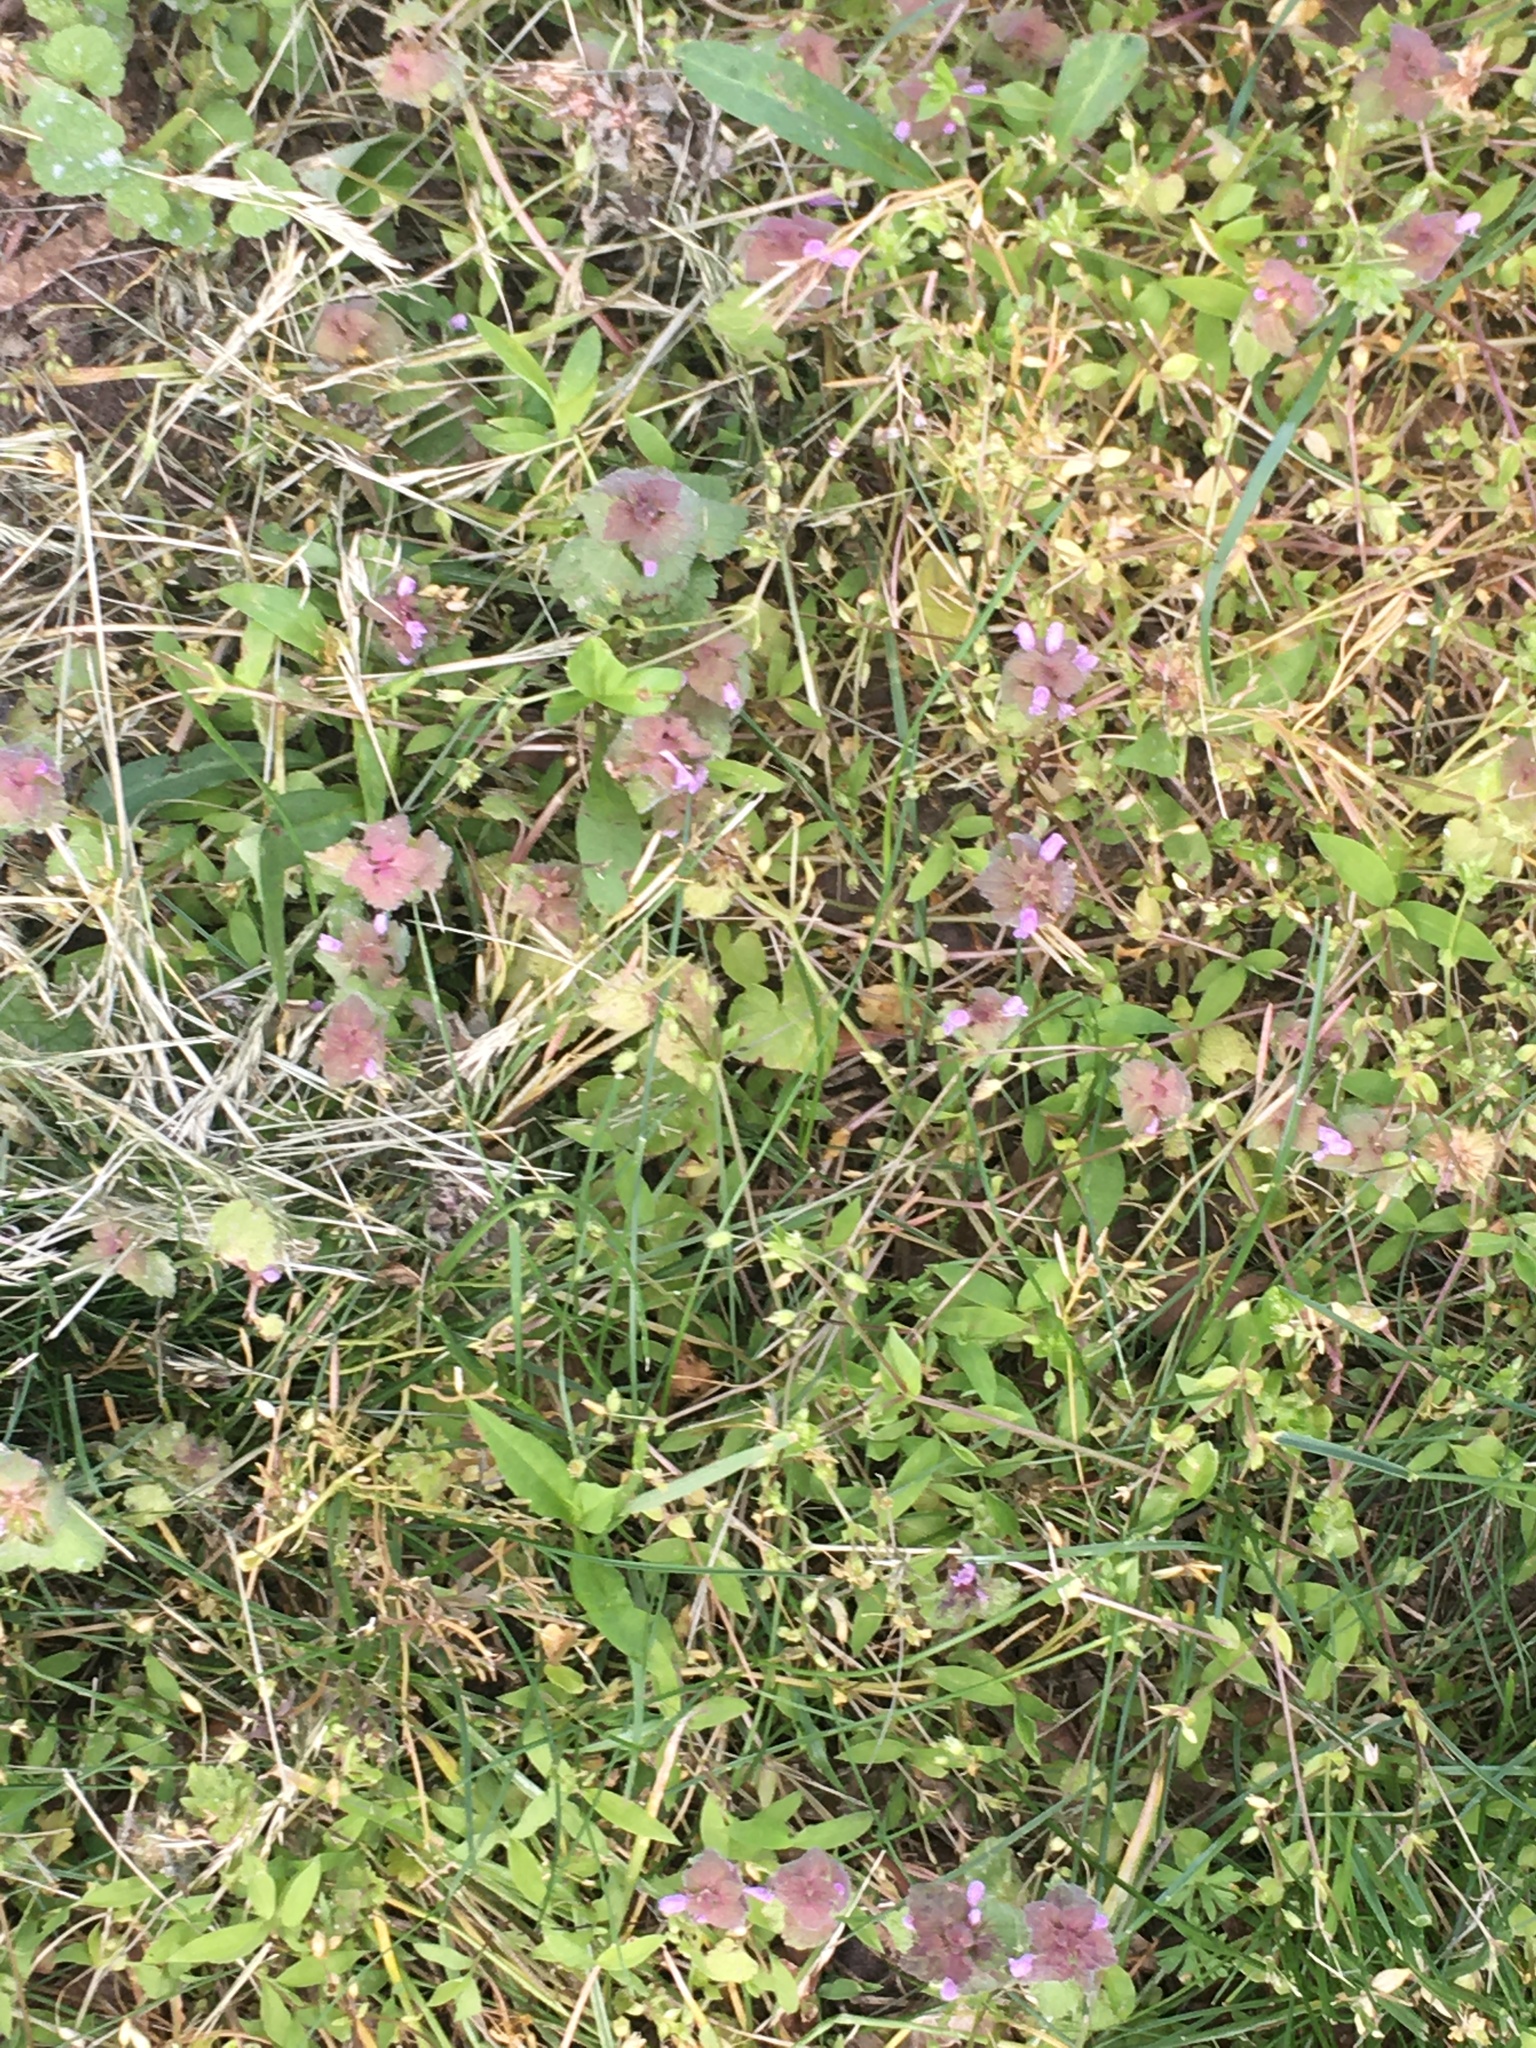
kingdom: Plantae
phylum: Tracheophyta
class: Magnoliopsida
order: Lamiales
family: Lamiaceae
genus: Lamium
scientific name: Lamium purpureum
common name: Red dead-nettle
